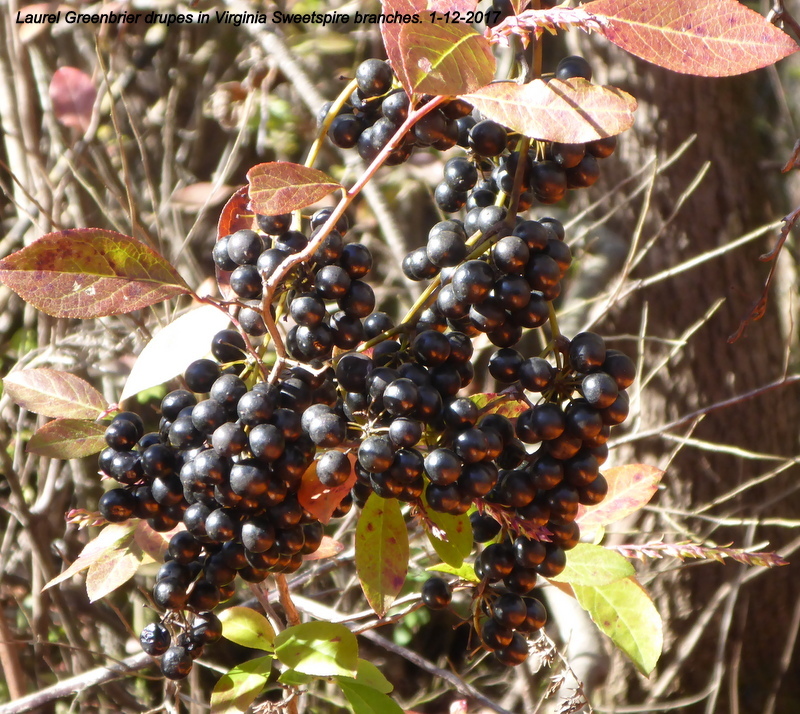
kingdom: Plantae
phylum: Tracheophyta
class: Magnoliopsida
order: Vitales
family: Vitaceae
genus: Vitis
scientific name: Vitis rotundifolia
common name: Muscadine grape
